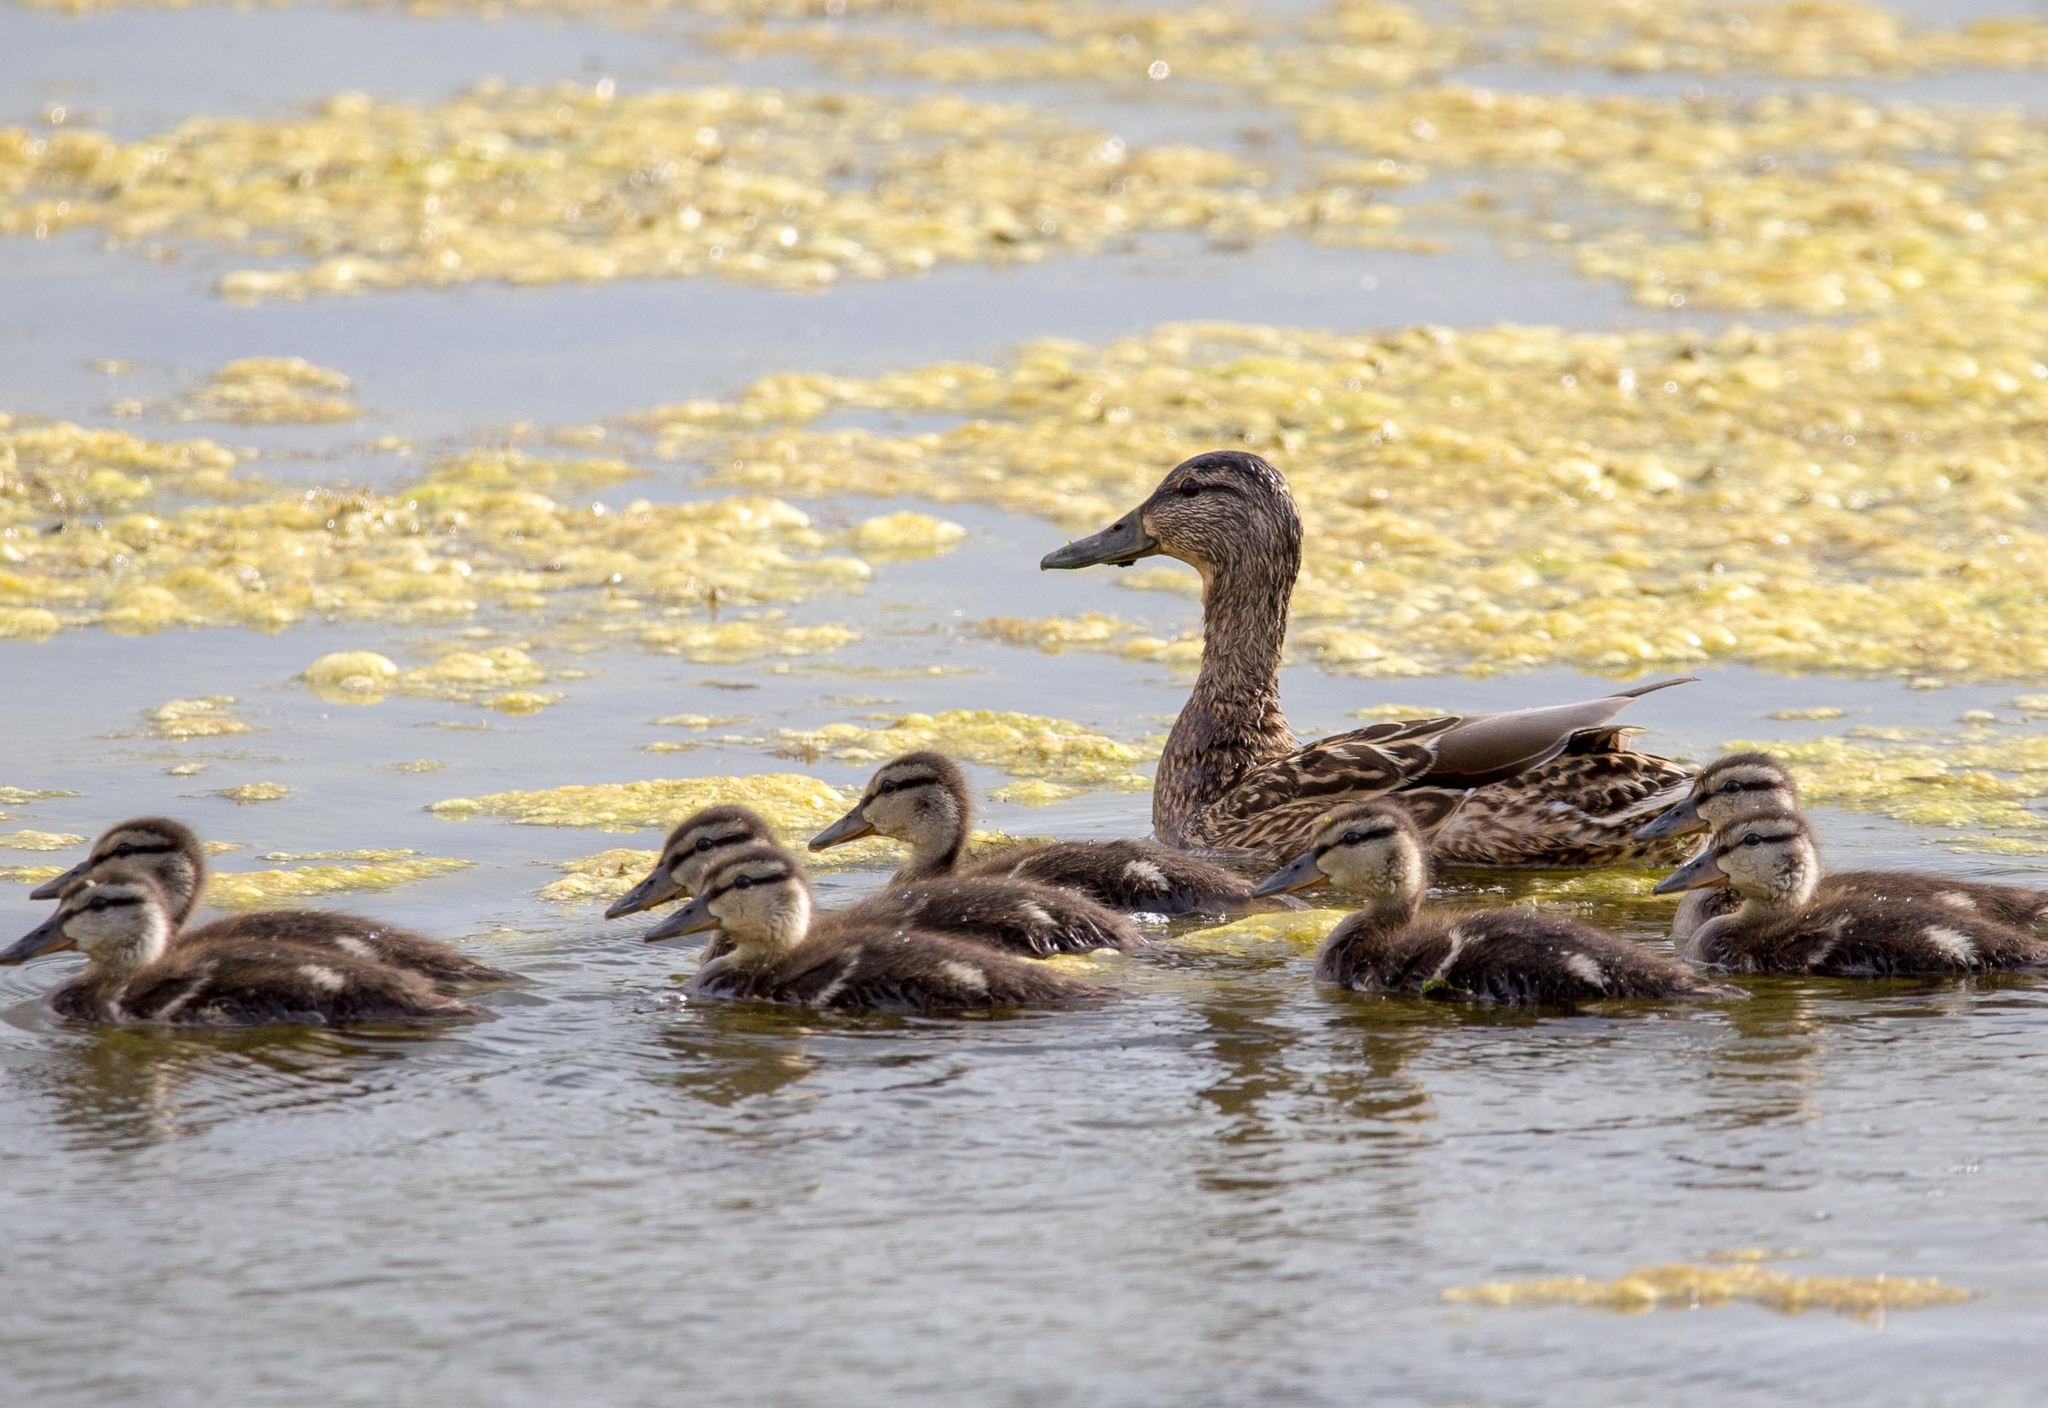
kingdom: Animalia
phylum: Chordata
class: Aves
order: Anseriformes
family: Anatidae
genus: Anas
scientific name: Anas platyrhynchos
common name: Mallard
